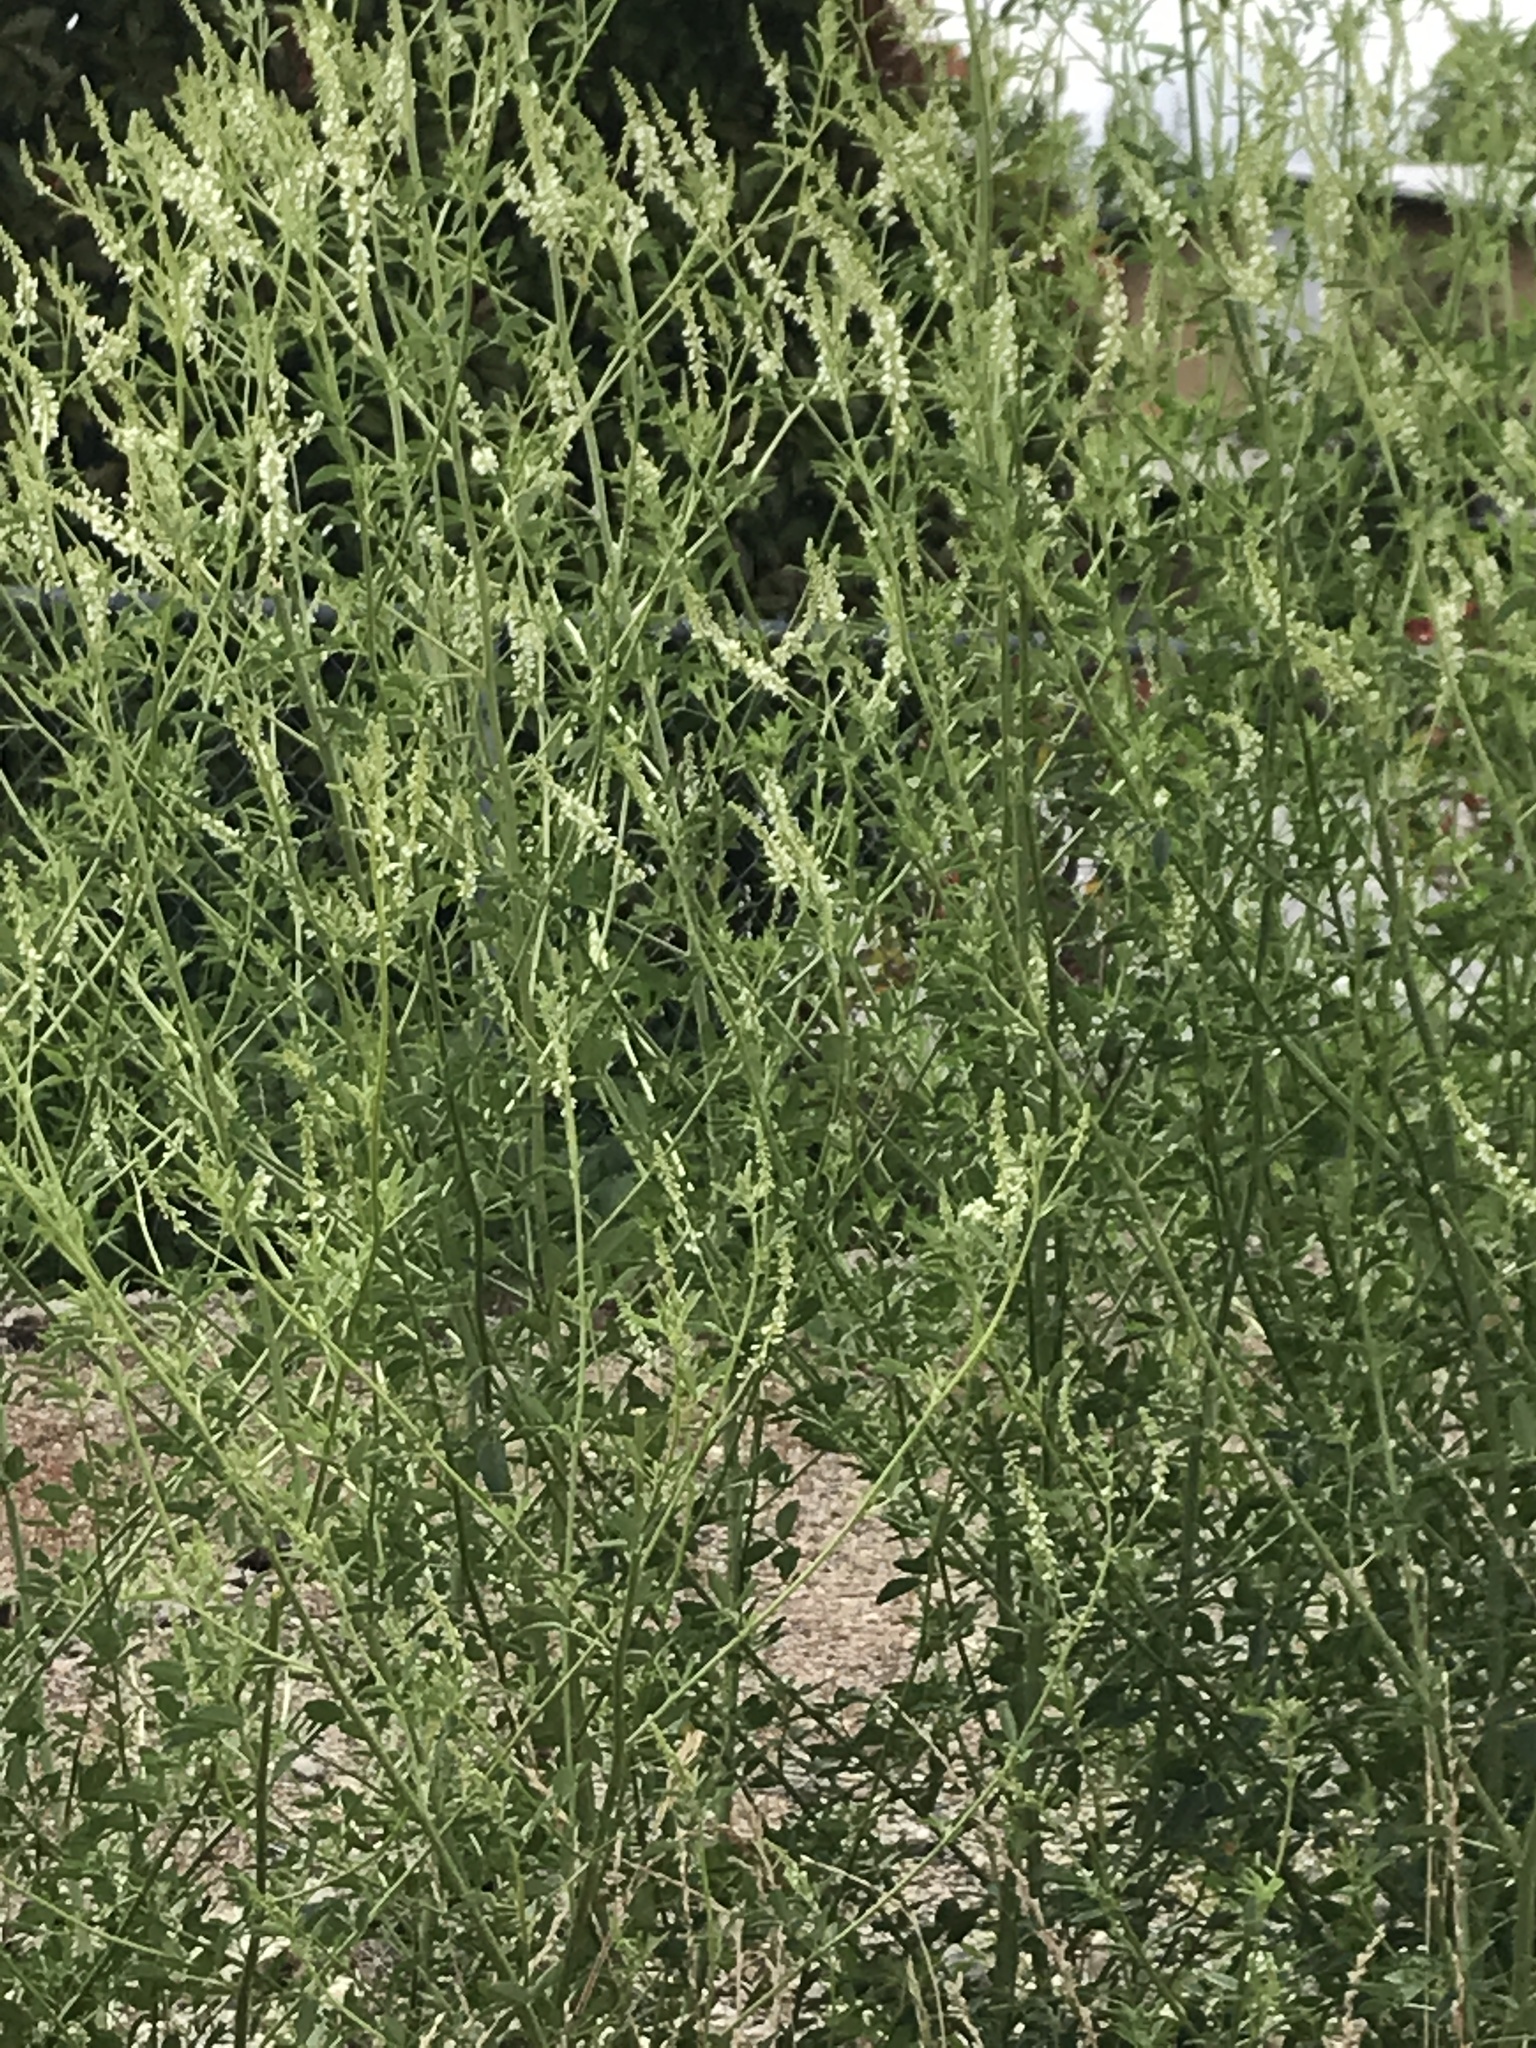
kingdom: Plantae
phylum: Tracheophyta
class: Magnoliopsida
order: Fabales
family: Fabaceae
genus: Melilotus
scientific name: Melilotus albus
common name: White melilot
